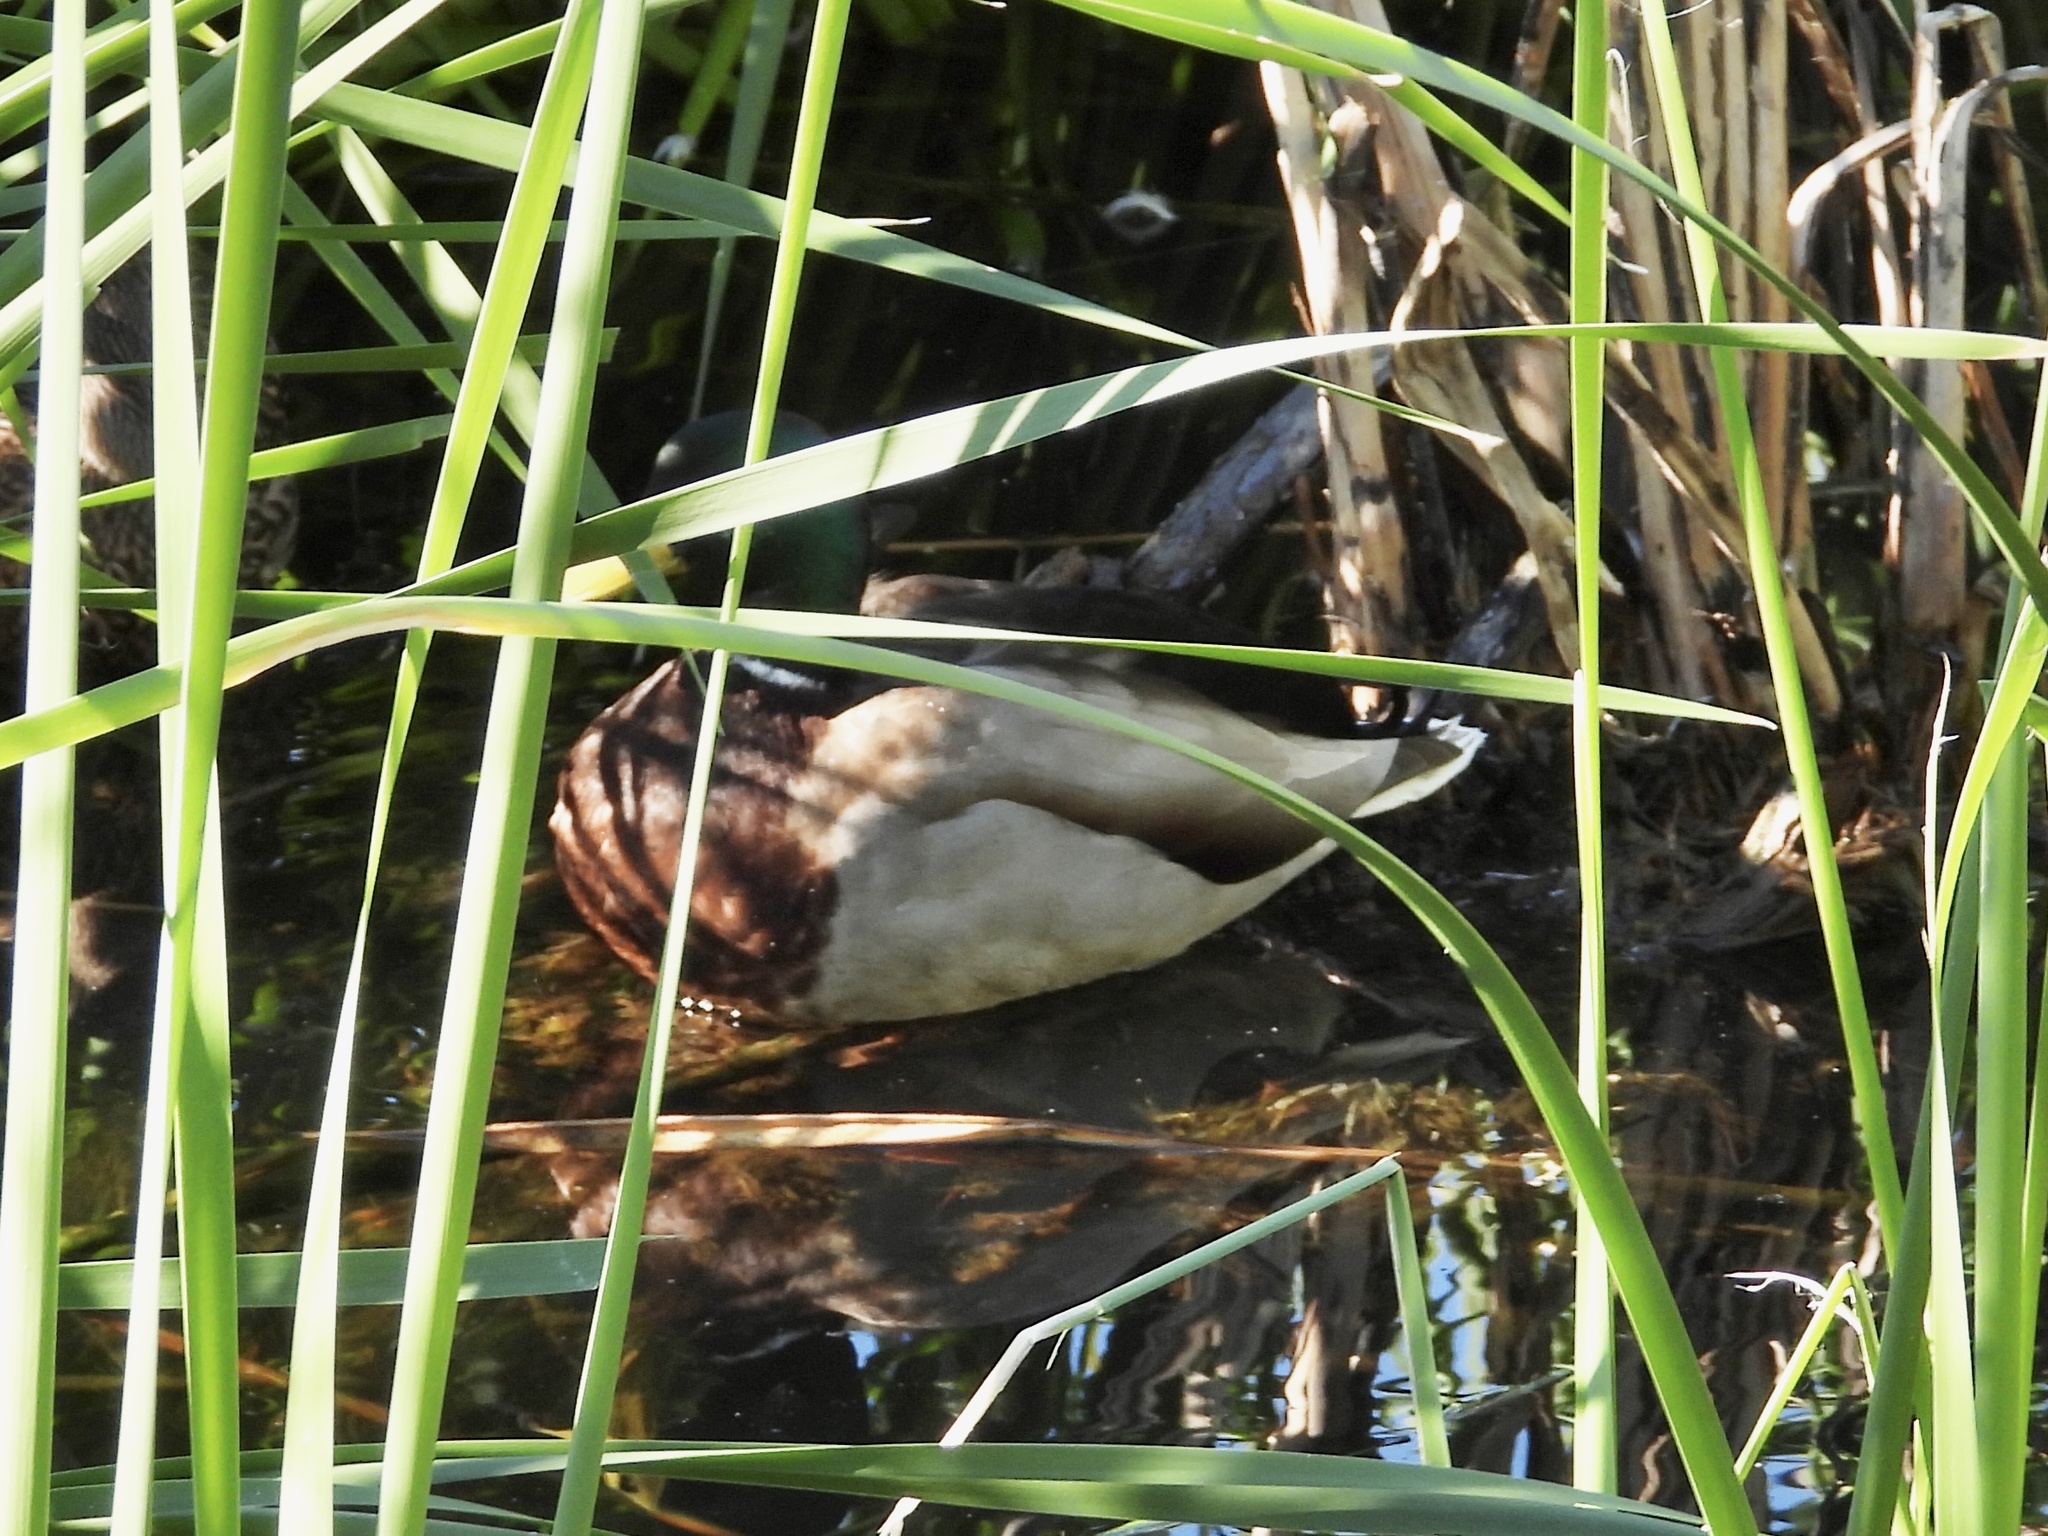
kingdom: Animalia
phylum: Chordata
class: Aves
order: Anseriformes
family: Anatidae
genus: Anas
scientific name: Anas platyrhynchos
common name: Mallard
